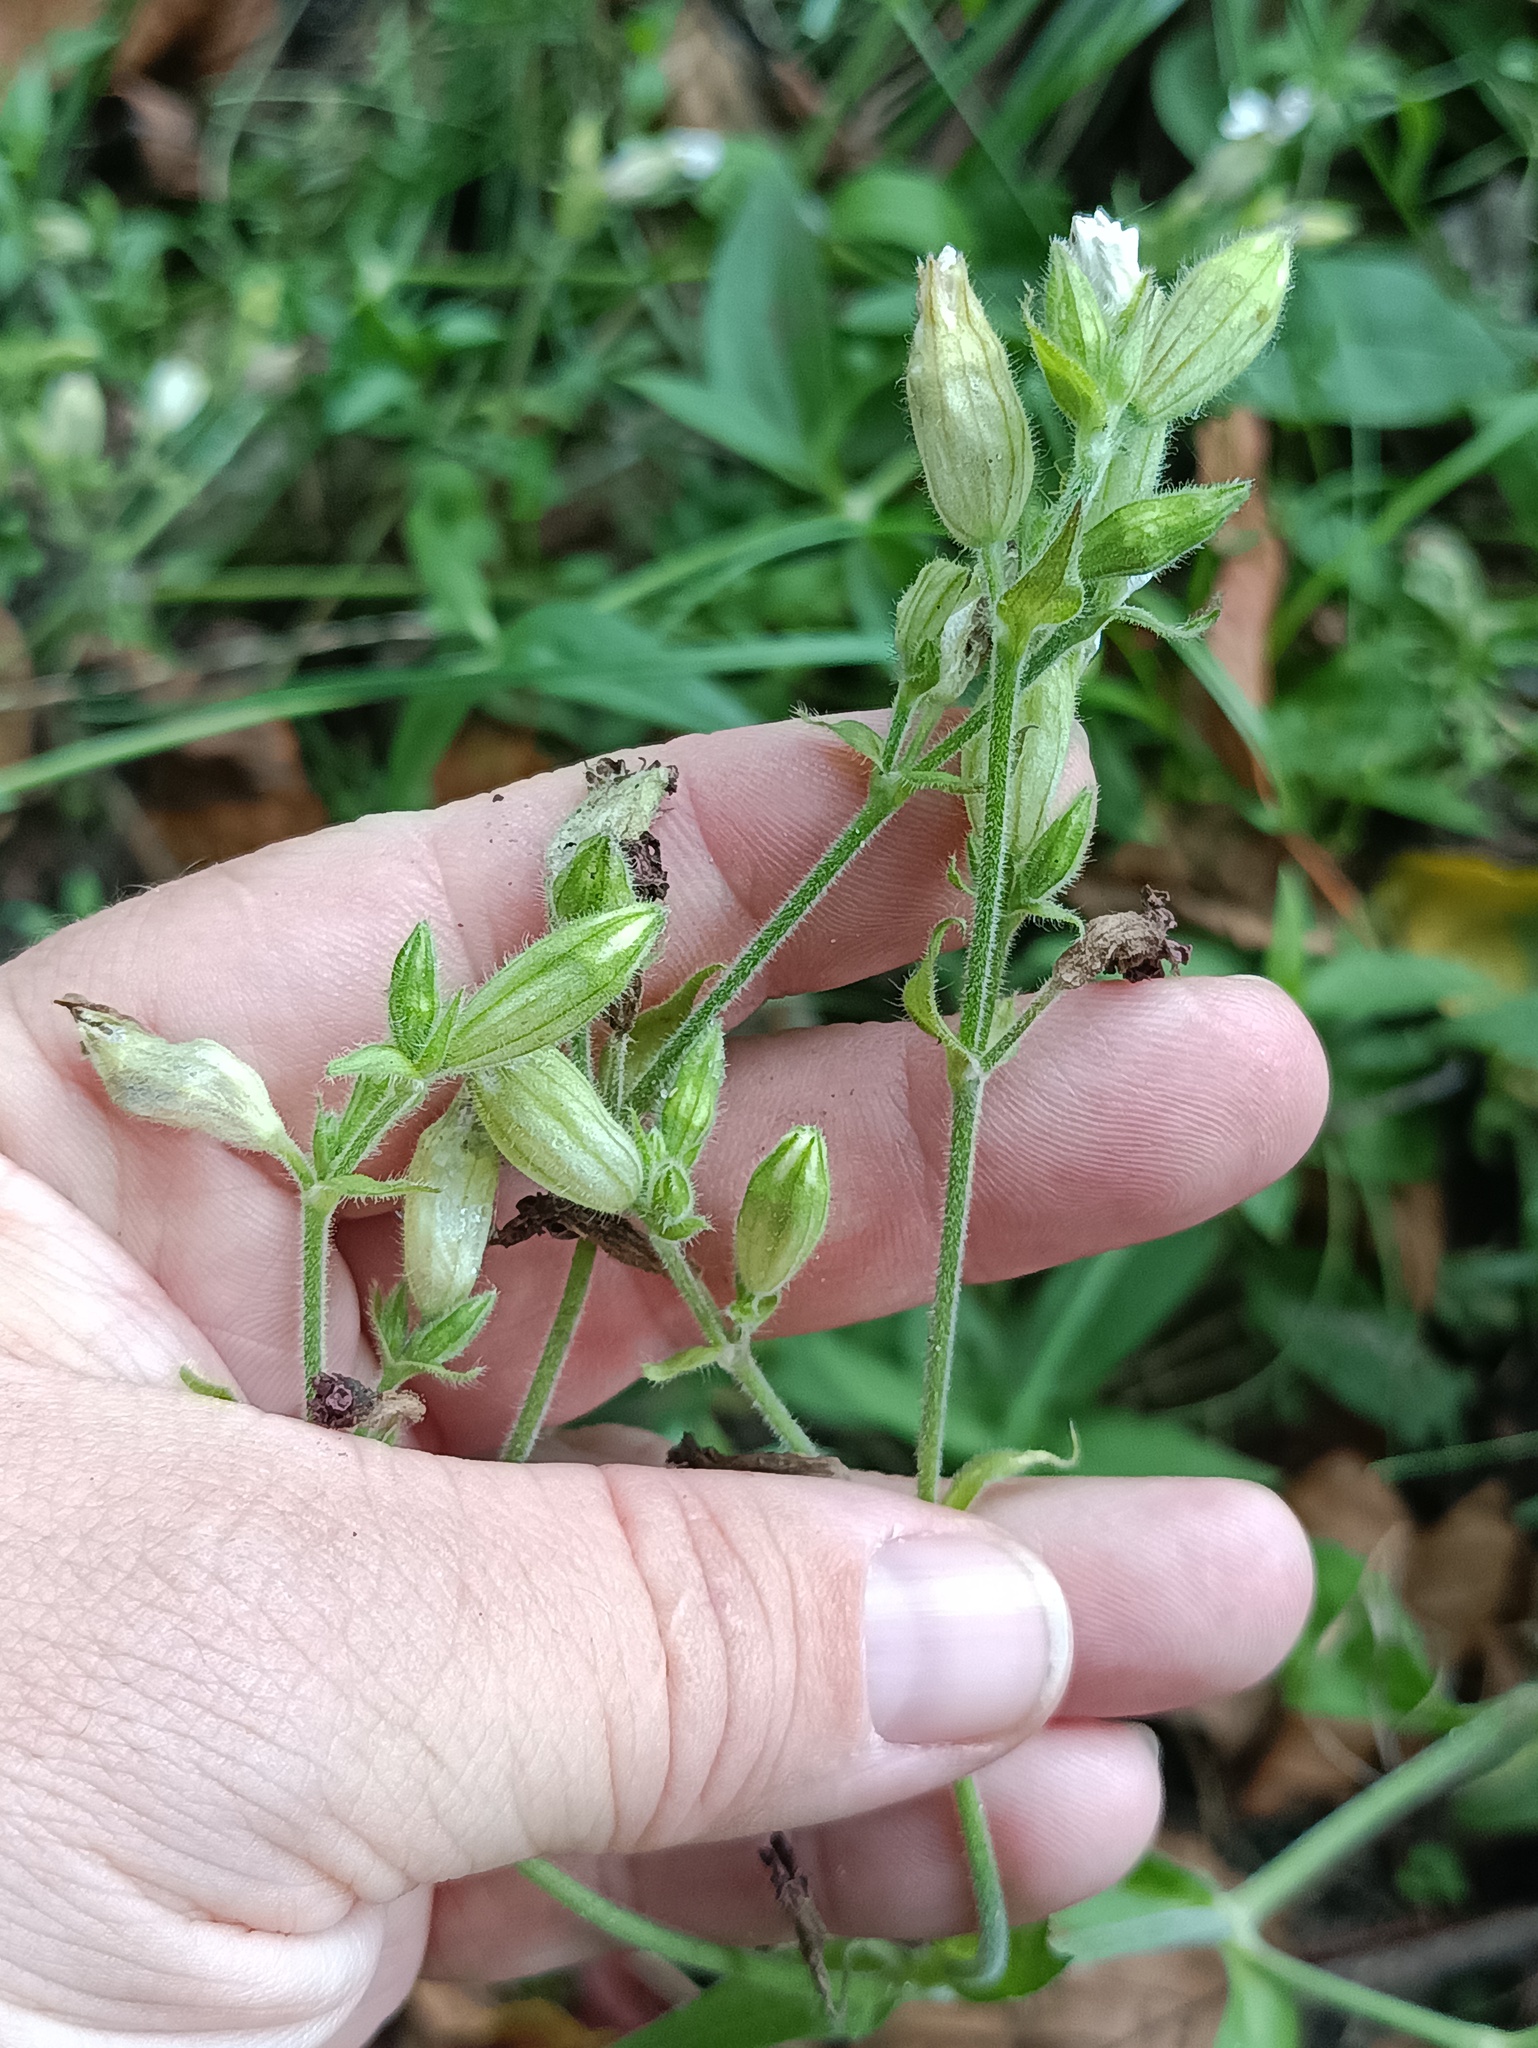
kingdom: Plantae
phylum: Tracheophyta
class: Magnoliopsida
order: Caryophyllales
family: Caryophyllaceae
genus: Silene
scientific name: Silene latifolia
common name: White campion
